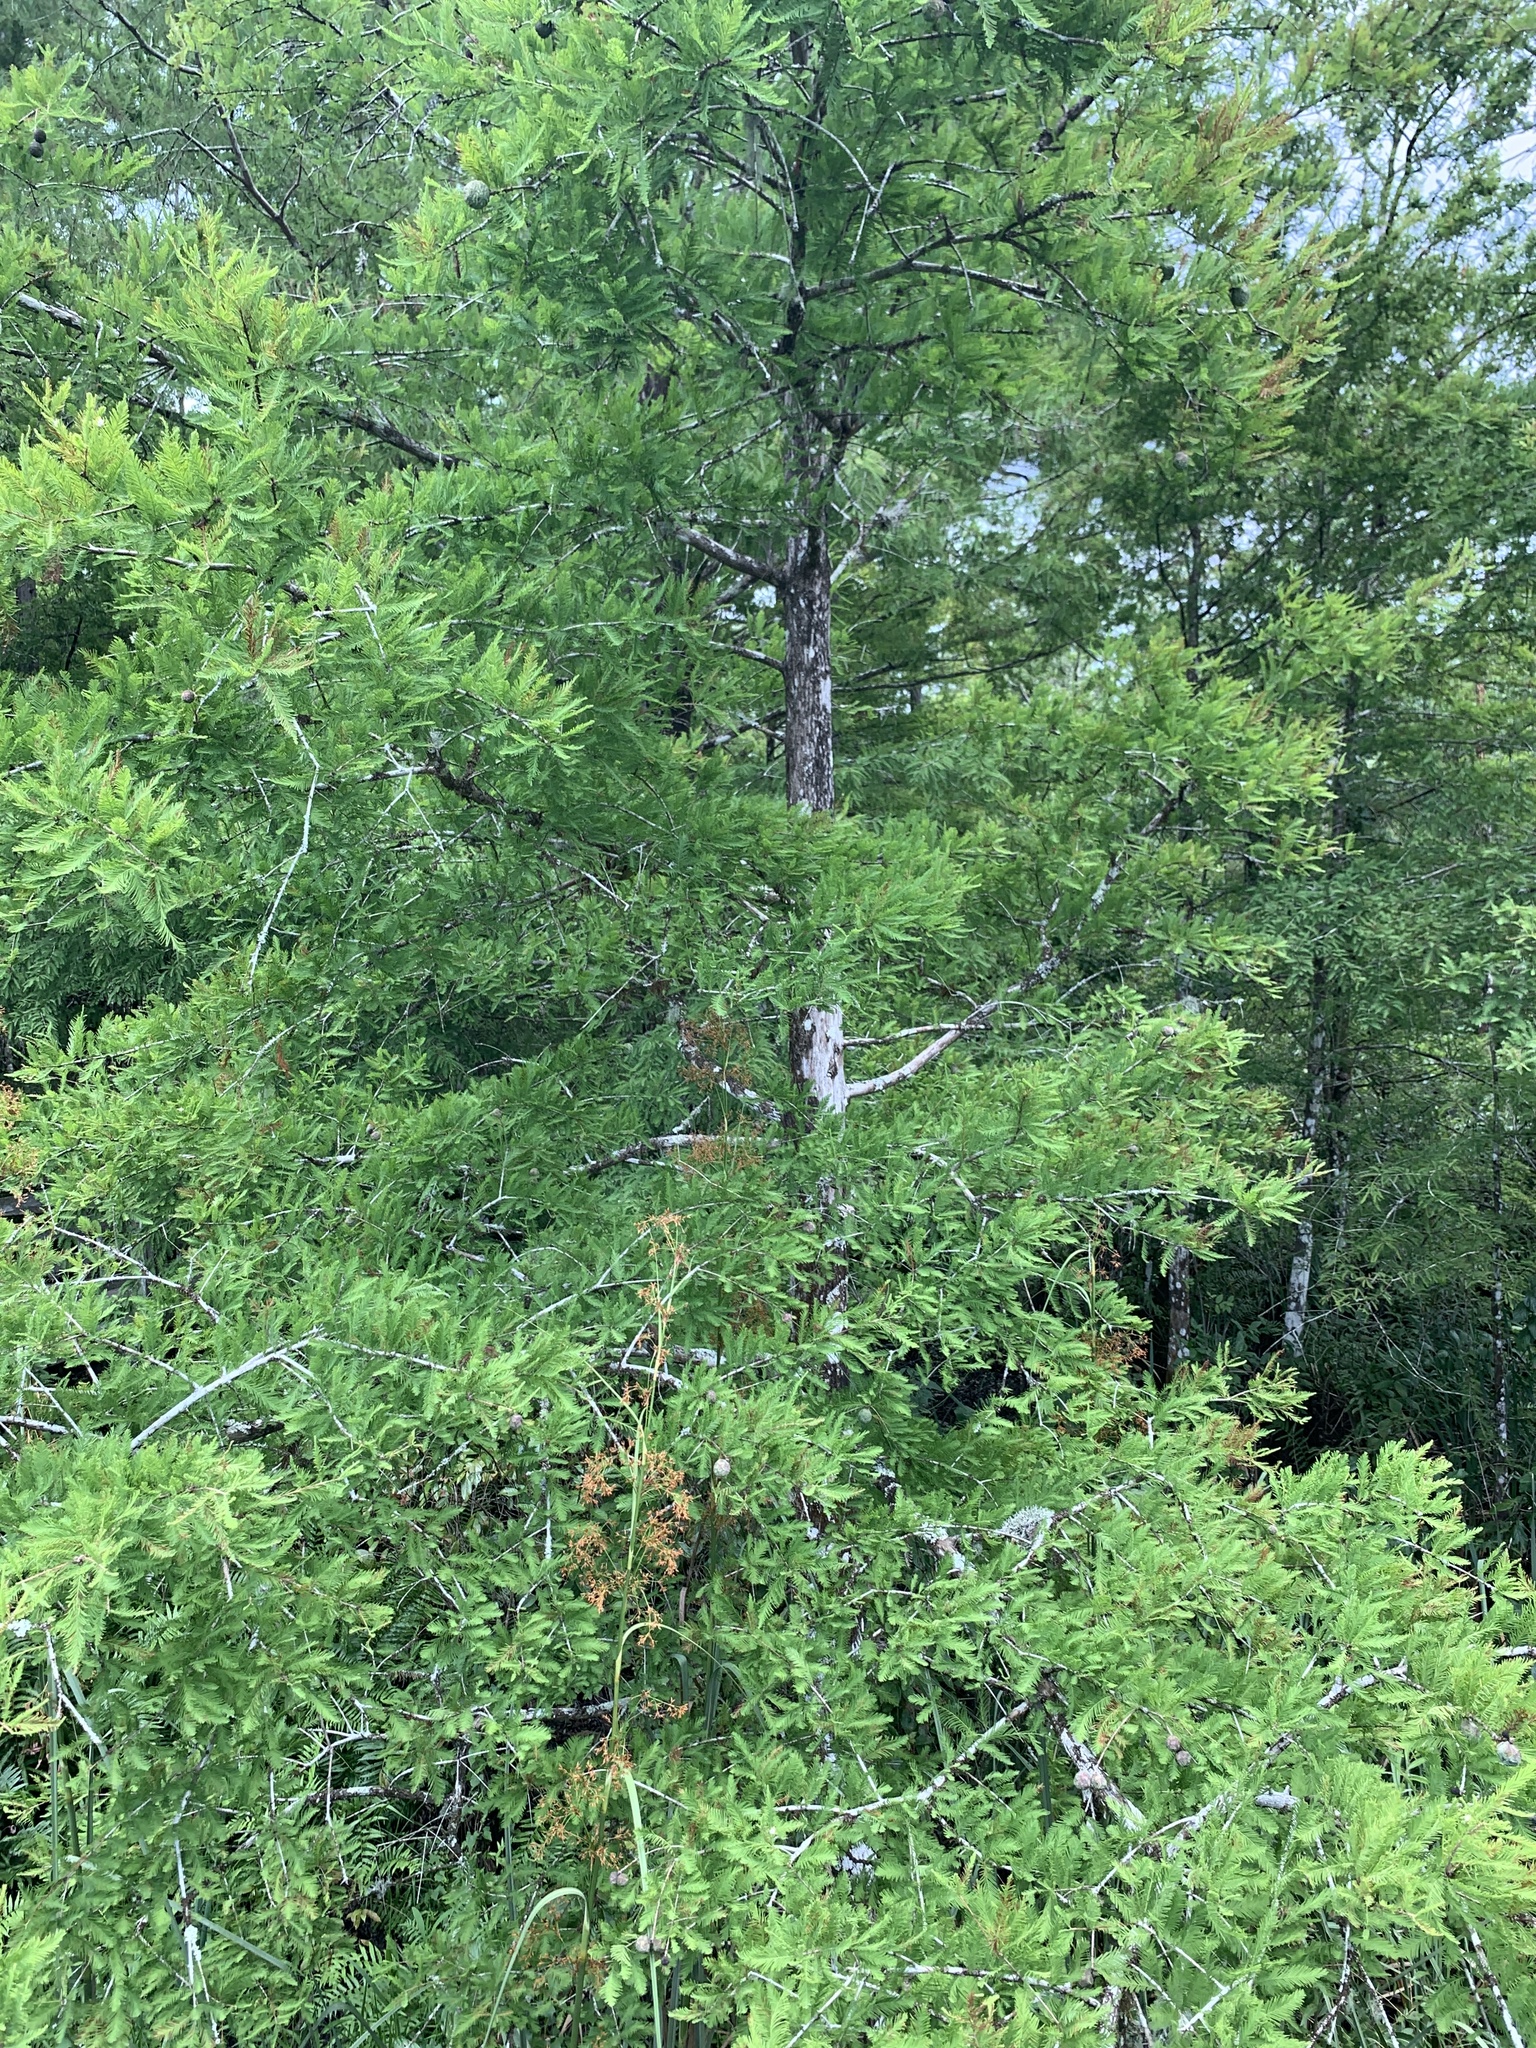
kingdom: Plantae
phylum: Tracheophyta
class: Pinopsida
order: Pinales
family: Cupressaceae
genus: Taxodium
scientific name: Taxodium distichum
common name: Bald cypress
